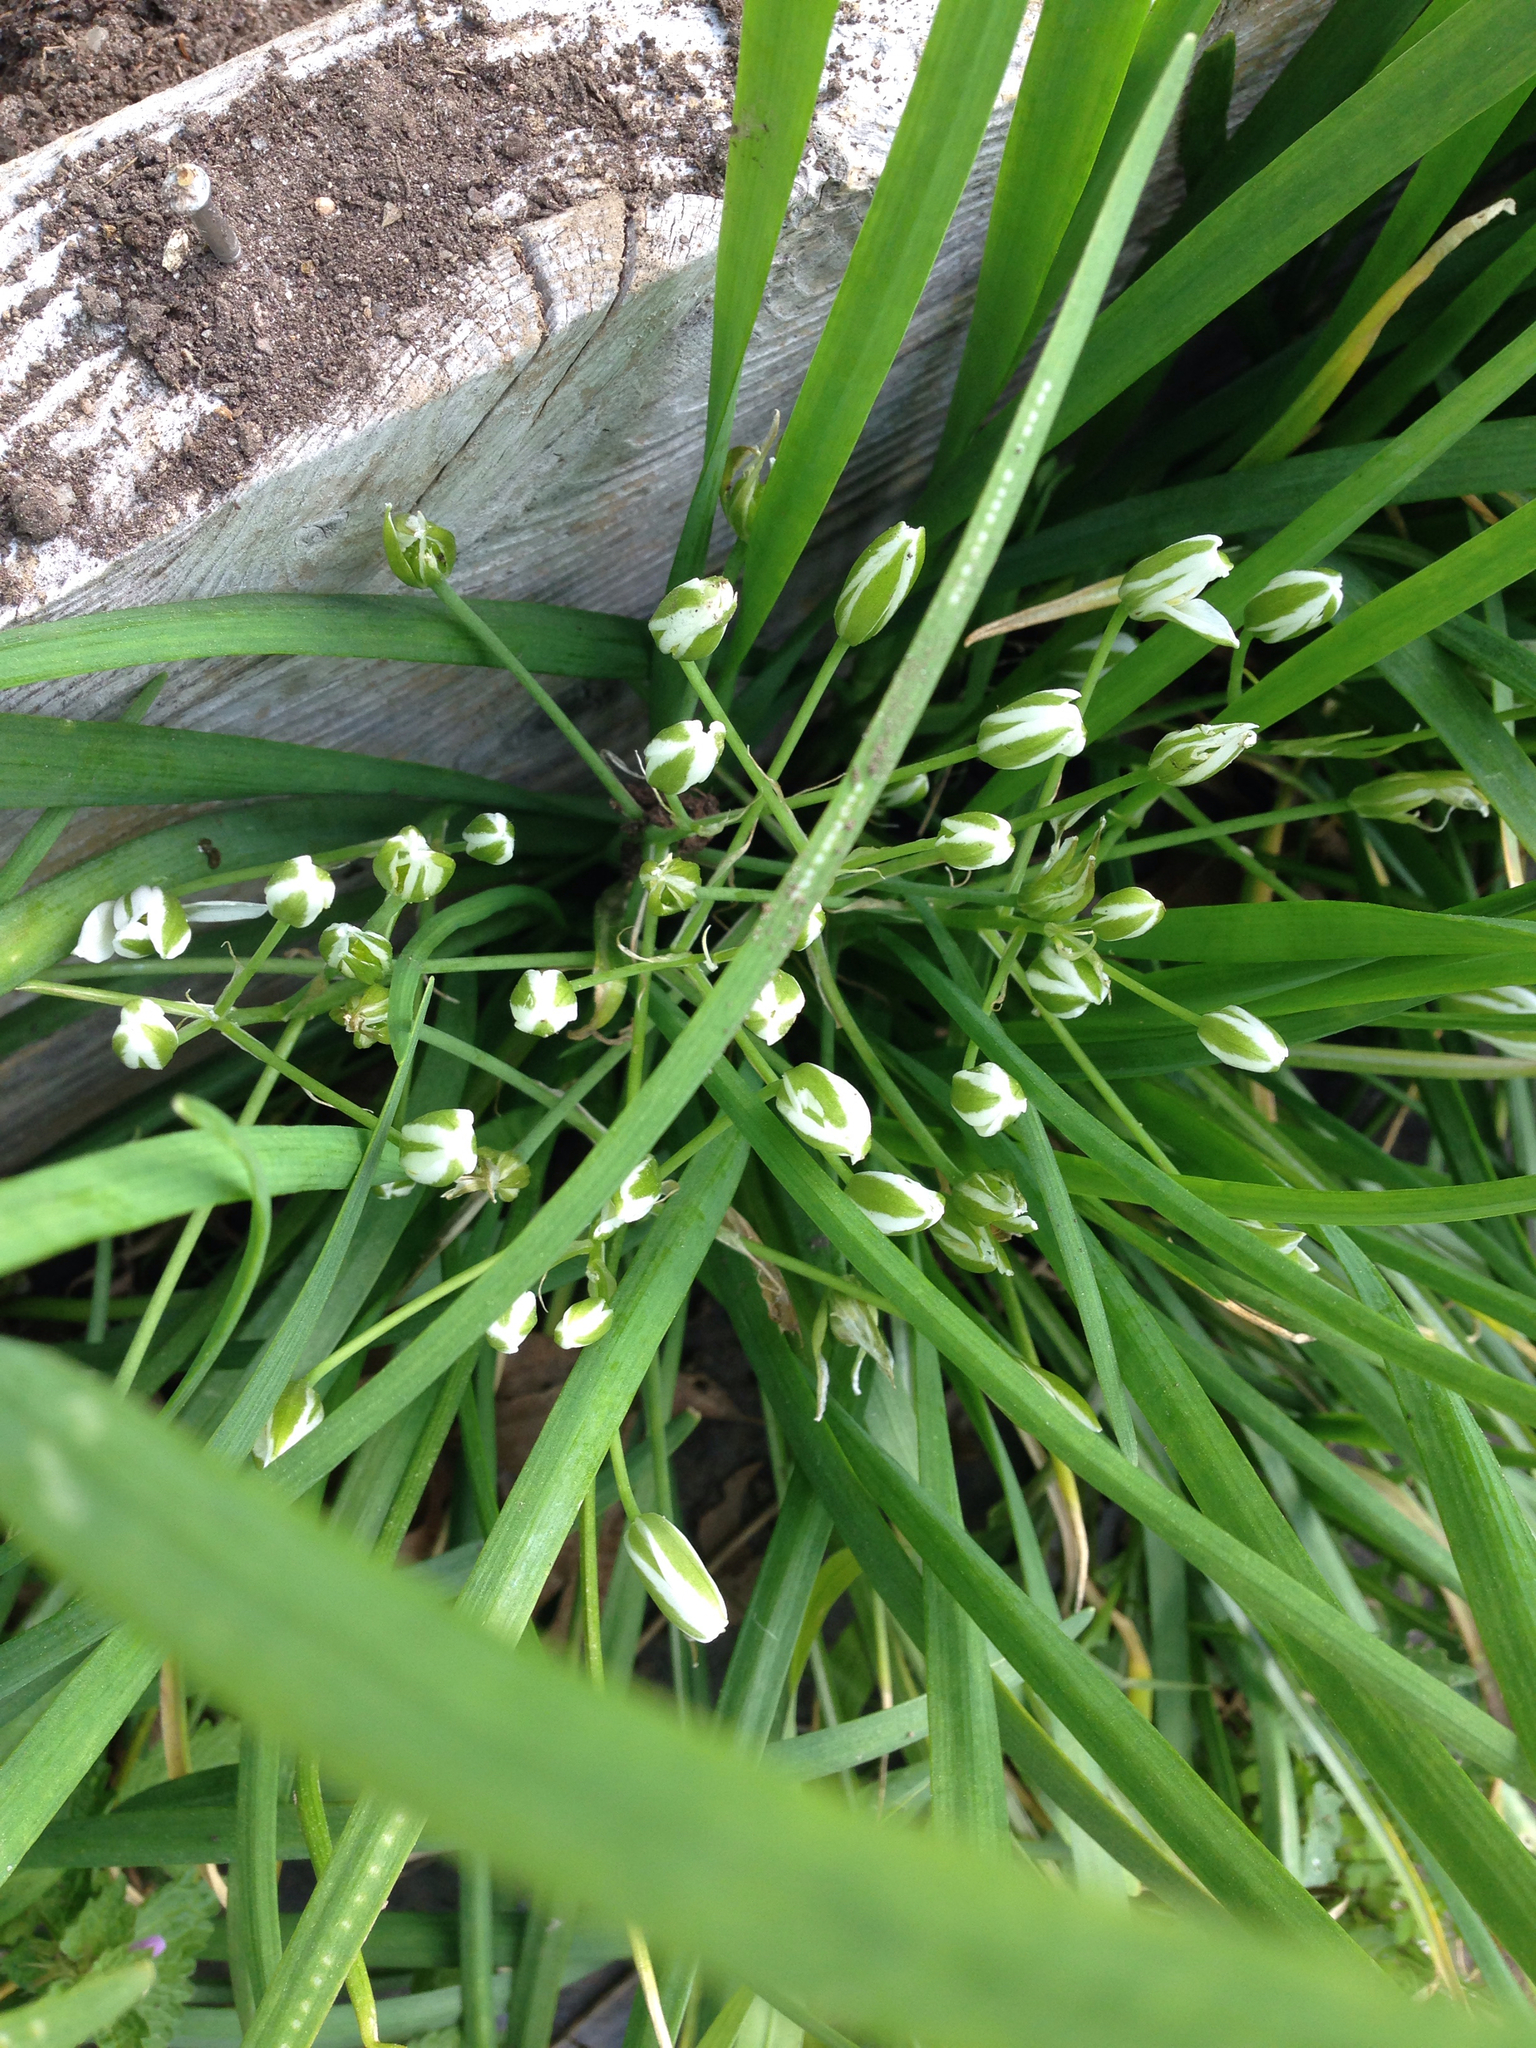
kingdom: Plantae
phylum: Tracheophyta
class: Liliopsida
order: Asparagales
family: Asparagaceae
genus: Ornithogalum
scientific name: Ornithogalum umbellatum
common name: Garden star-of-bethlehem
